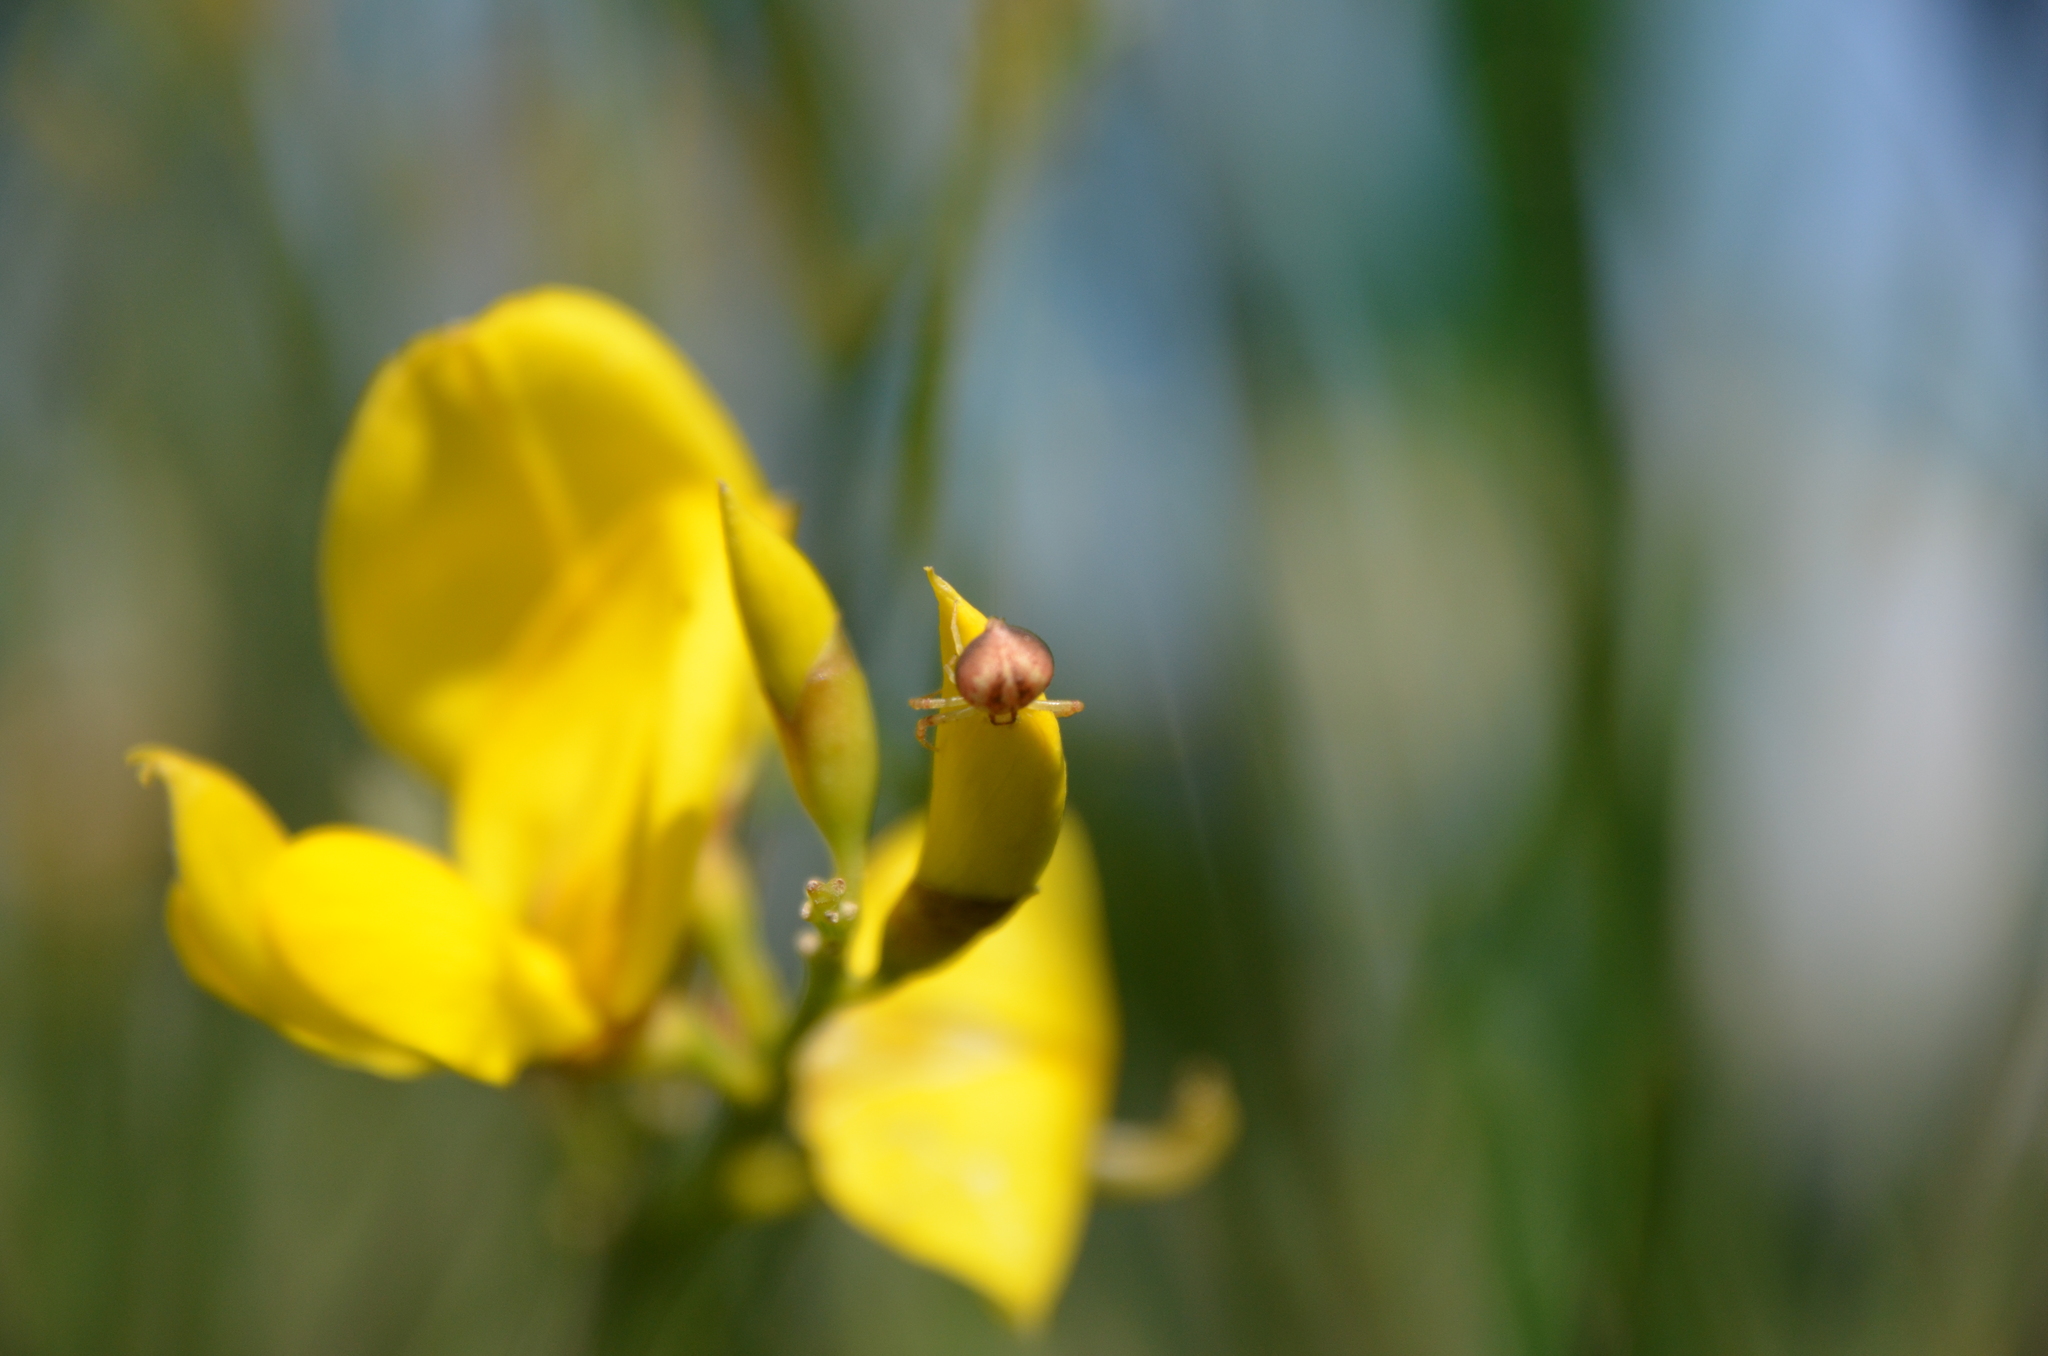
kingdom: Animalia
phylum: Arthropoda
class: Arachnida
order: Araneae
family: Thomisidae
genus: Misumenops
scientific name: Misumenops
